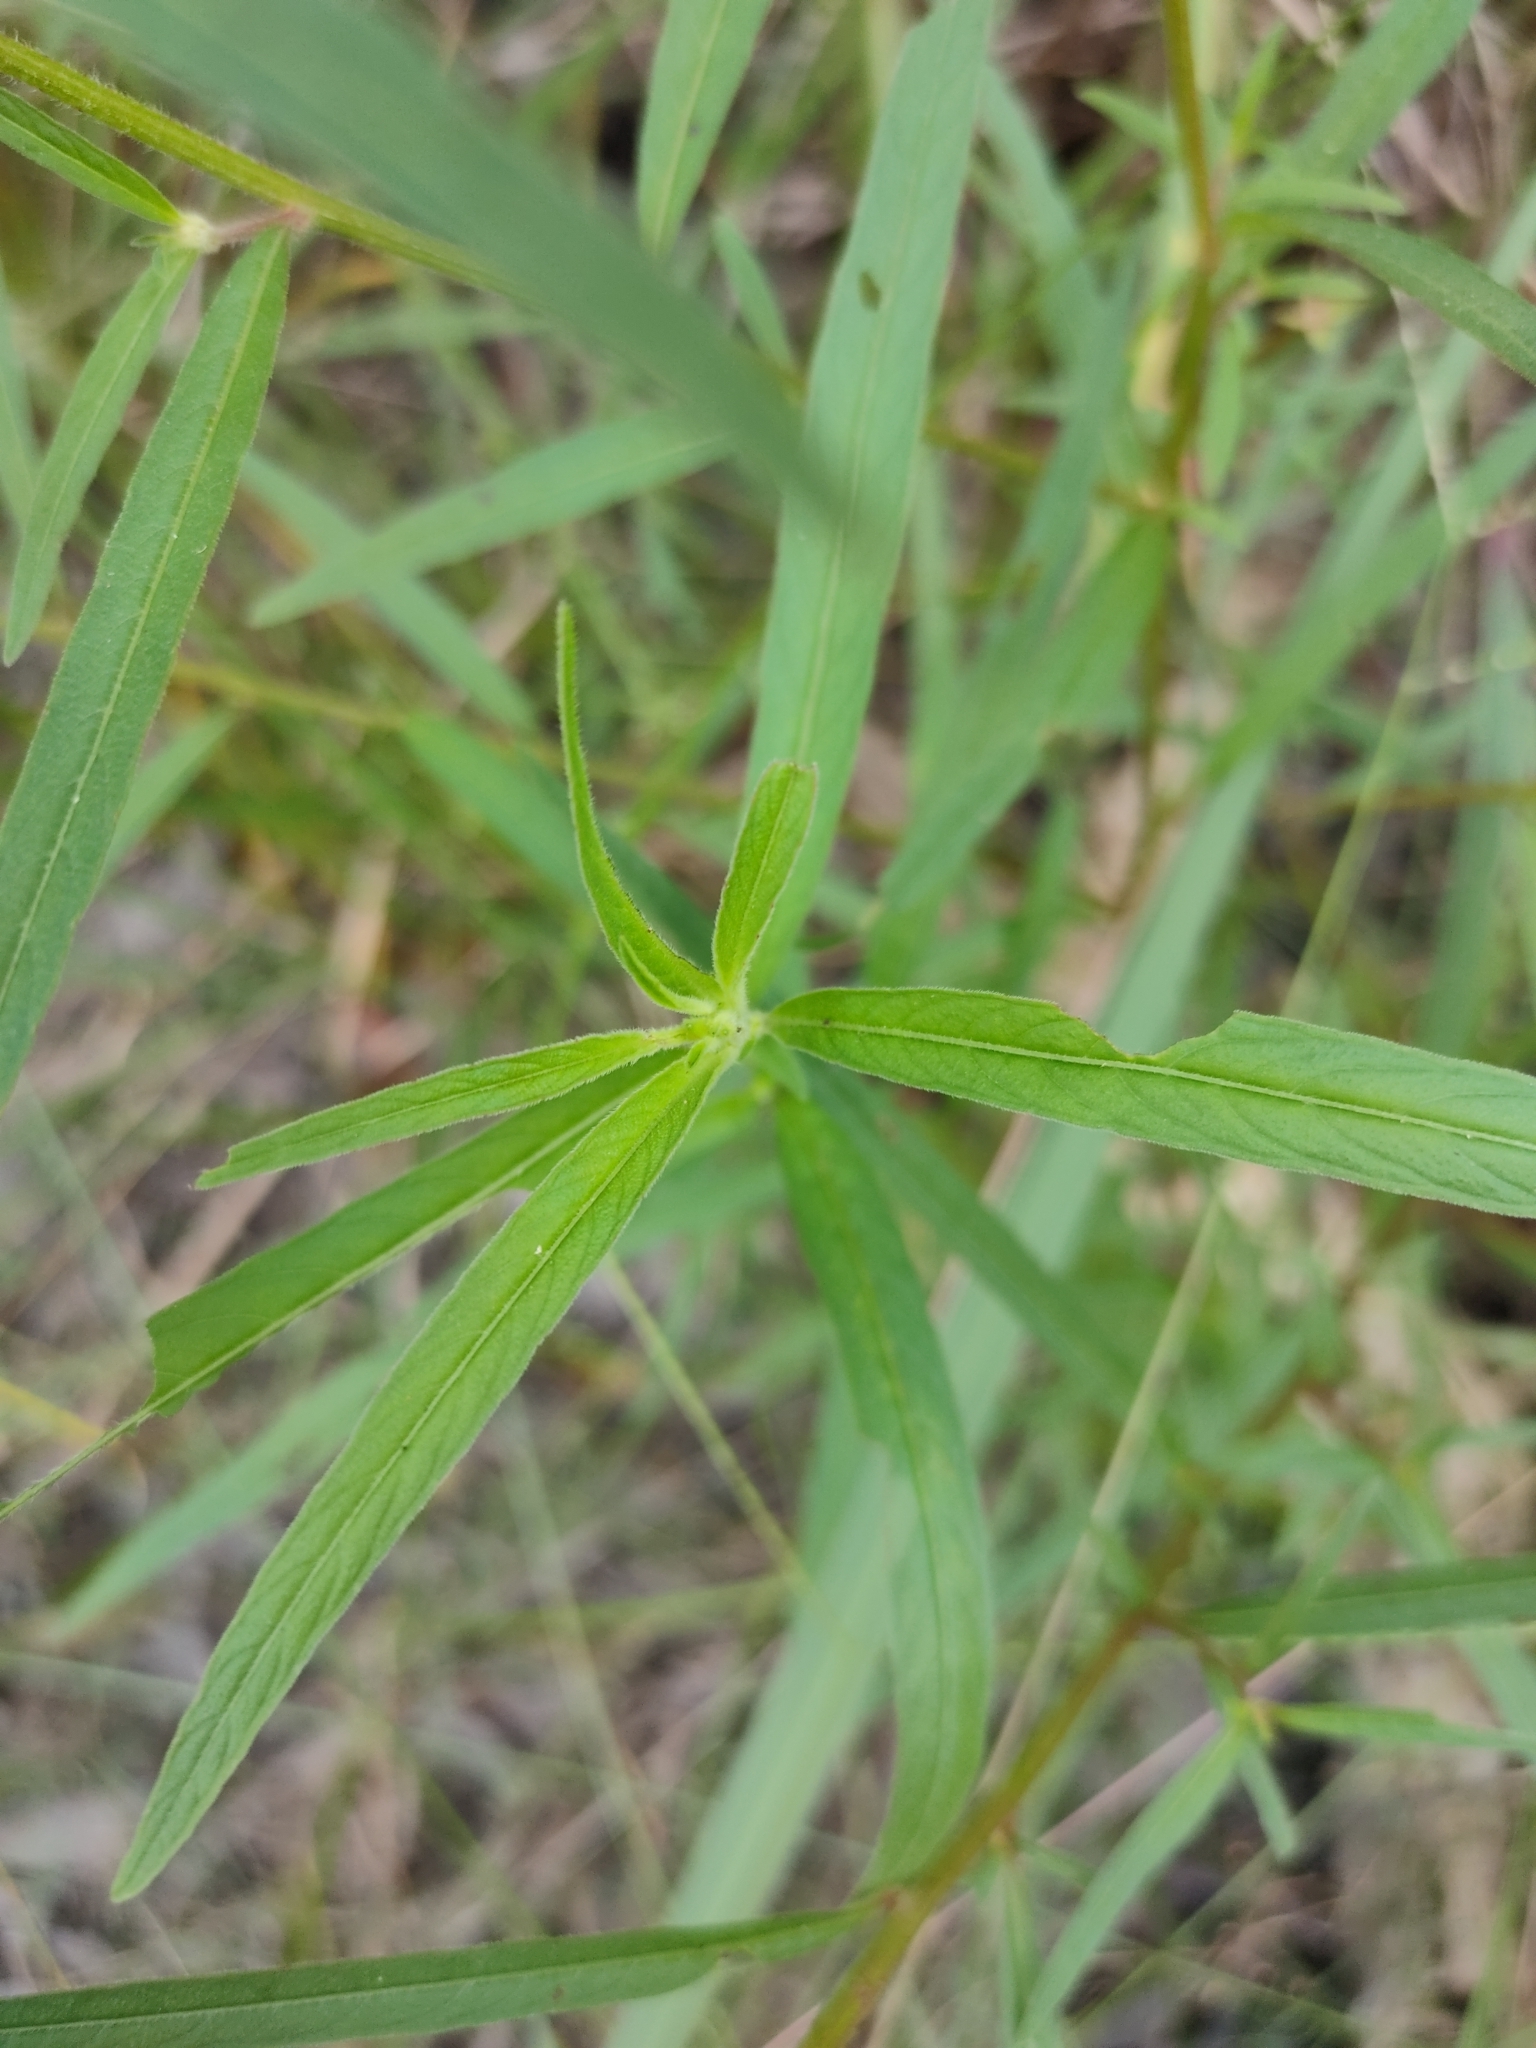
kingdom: Plantae
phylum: Tracheophyta
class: Magnoliopsida
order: Myrtales
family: Onagraceae
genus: Ludwigia
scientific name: Ludwigia octovalvis
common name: Water-primrose
